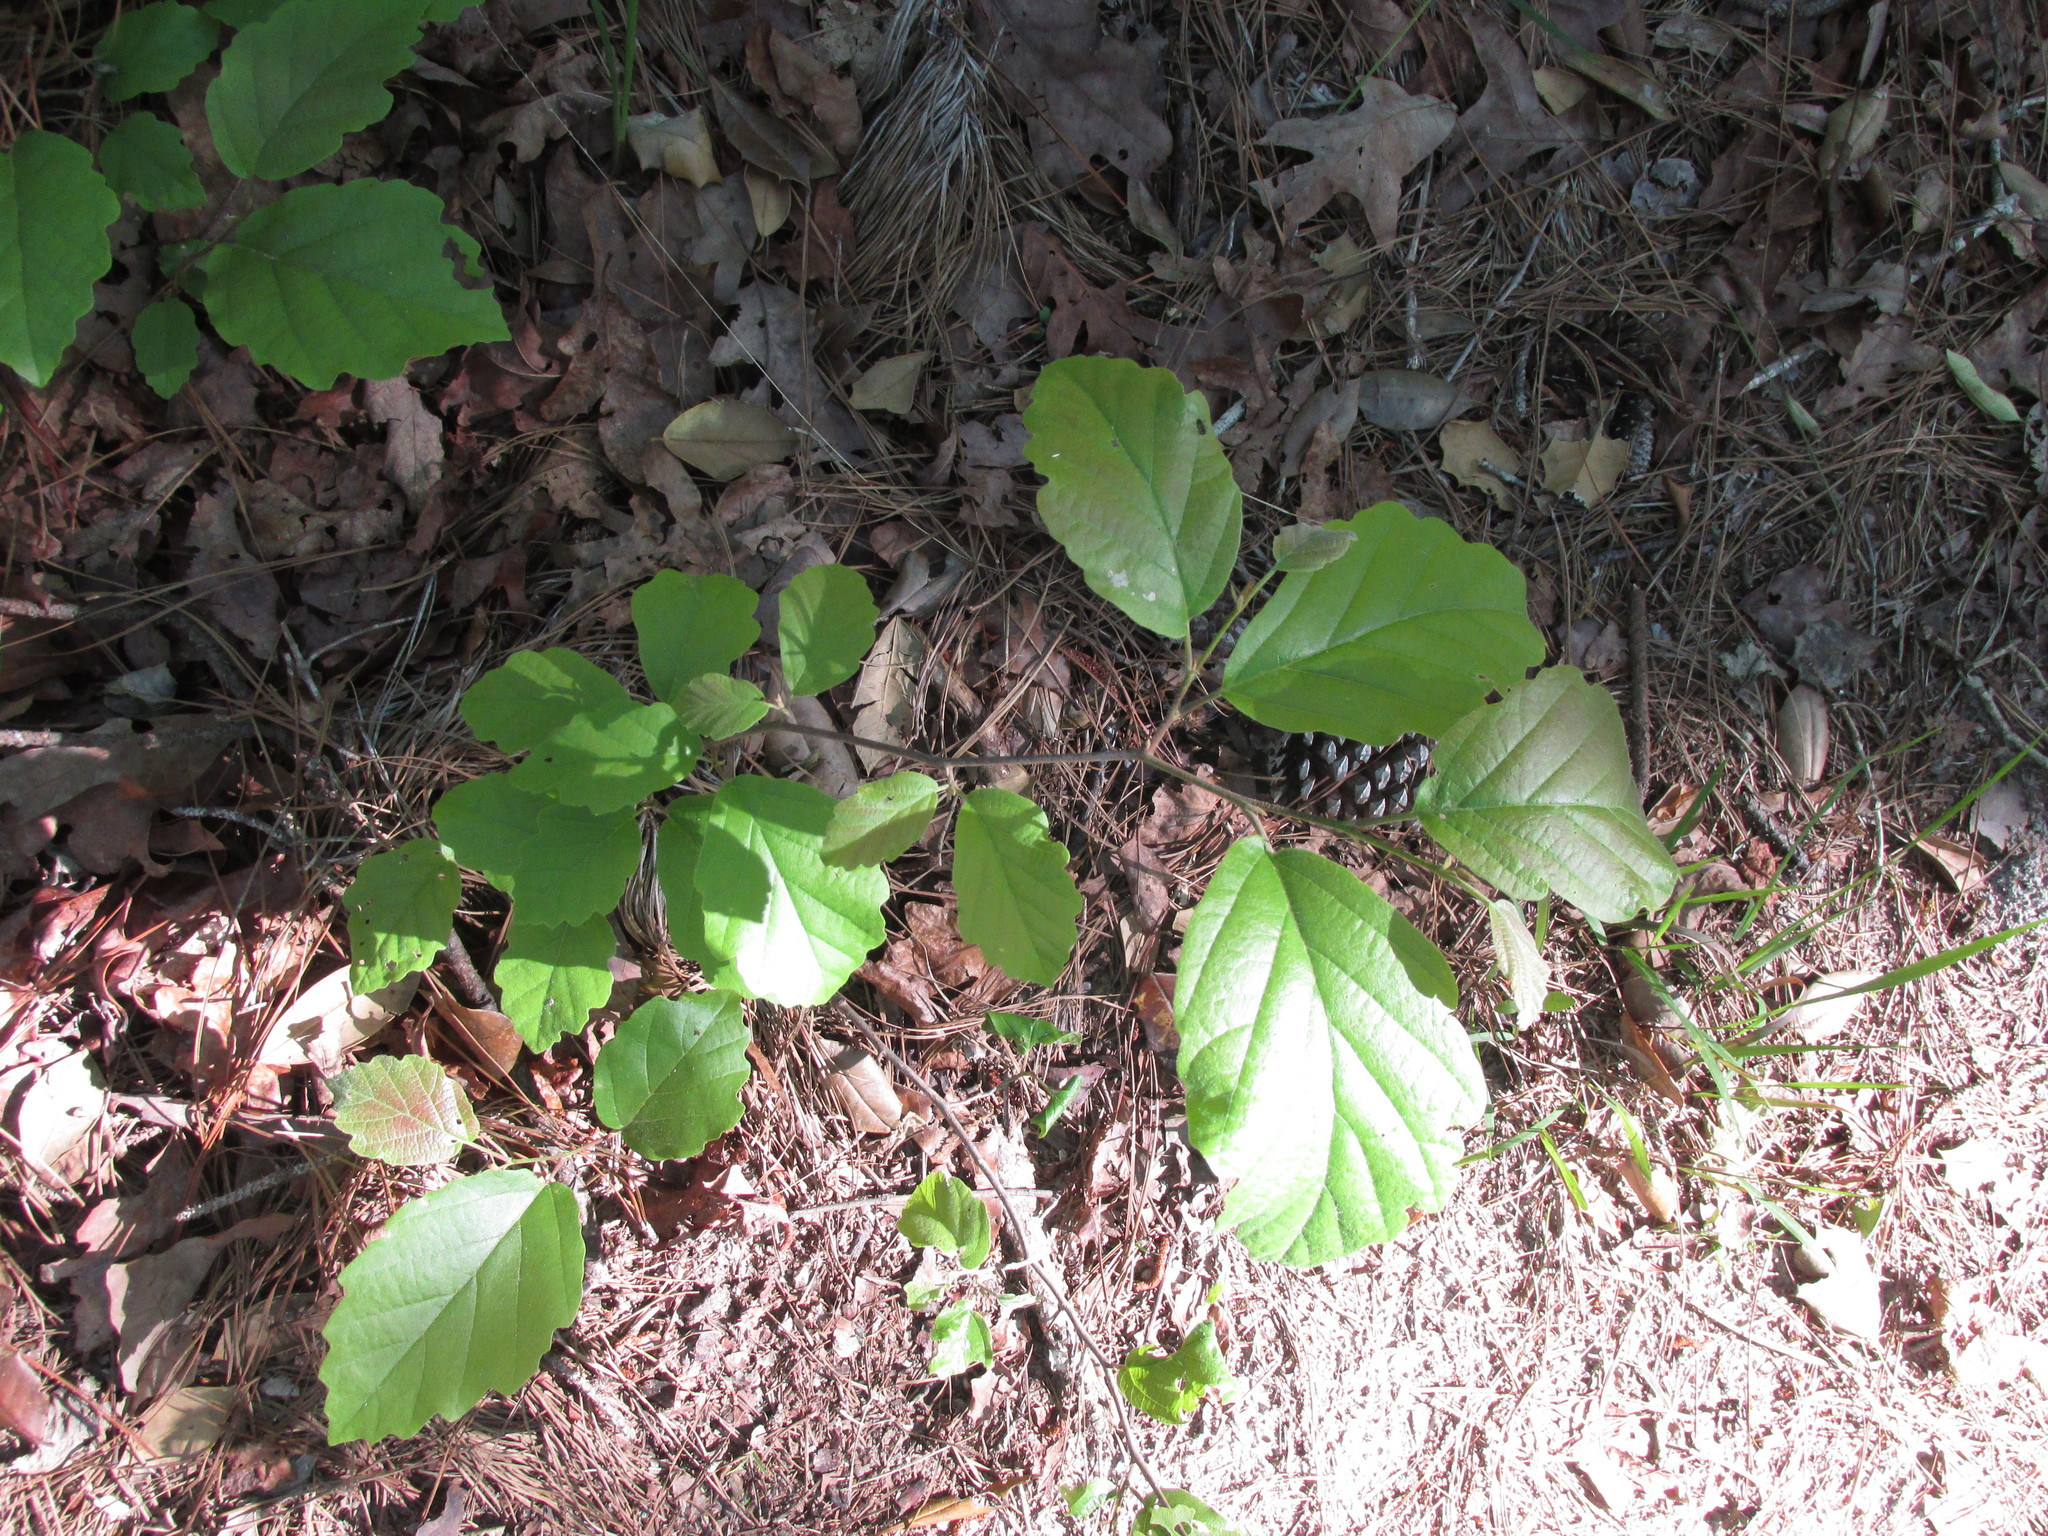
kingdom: Plantae
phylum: Tracheophyta
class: Magnoliopsida
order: Saxifragales
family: Hamamelidaceae
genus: Hamamelis
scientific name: Hamamelis virginiana
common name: Witch-hazel
